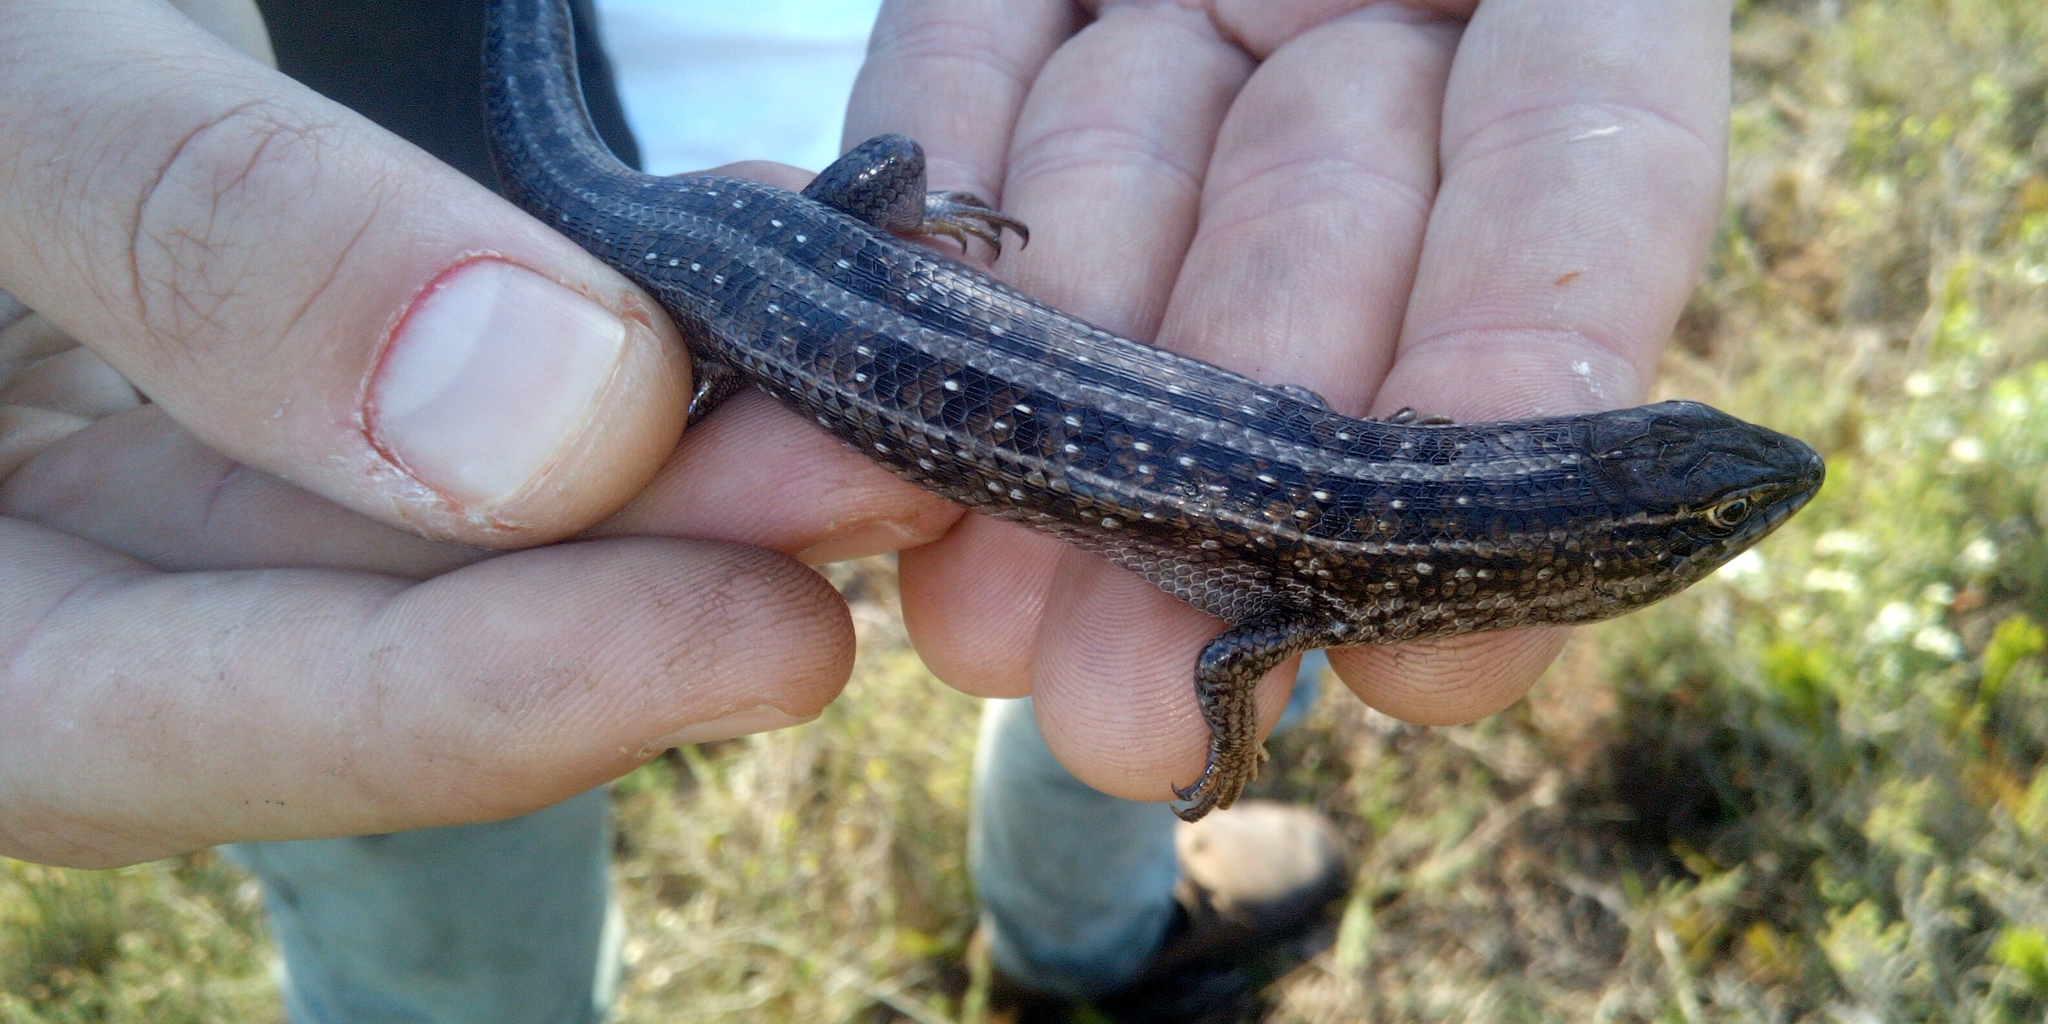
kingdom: Animalia
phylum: Chordata
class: Squamata
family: Scincidae
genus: Trachylepis
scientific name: Trachylepis capensis
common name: Cape skink
